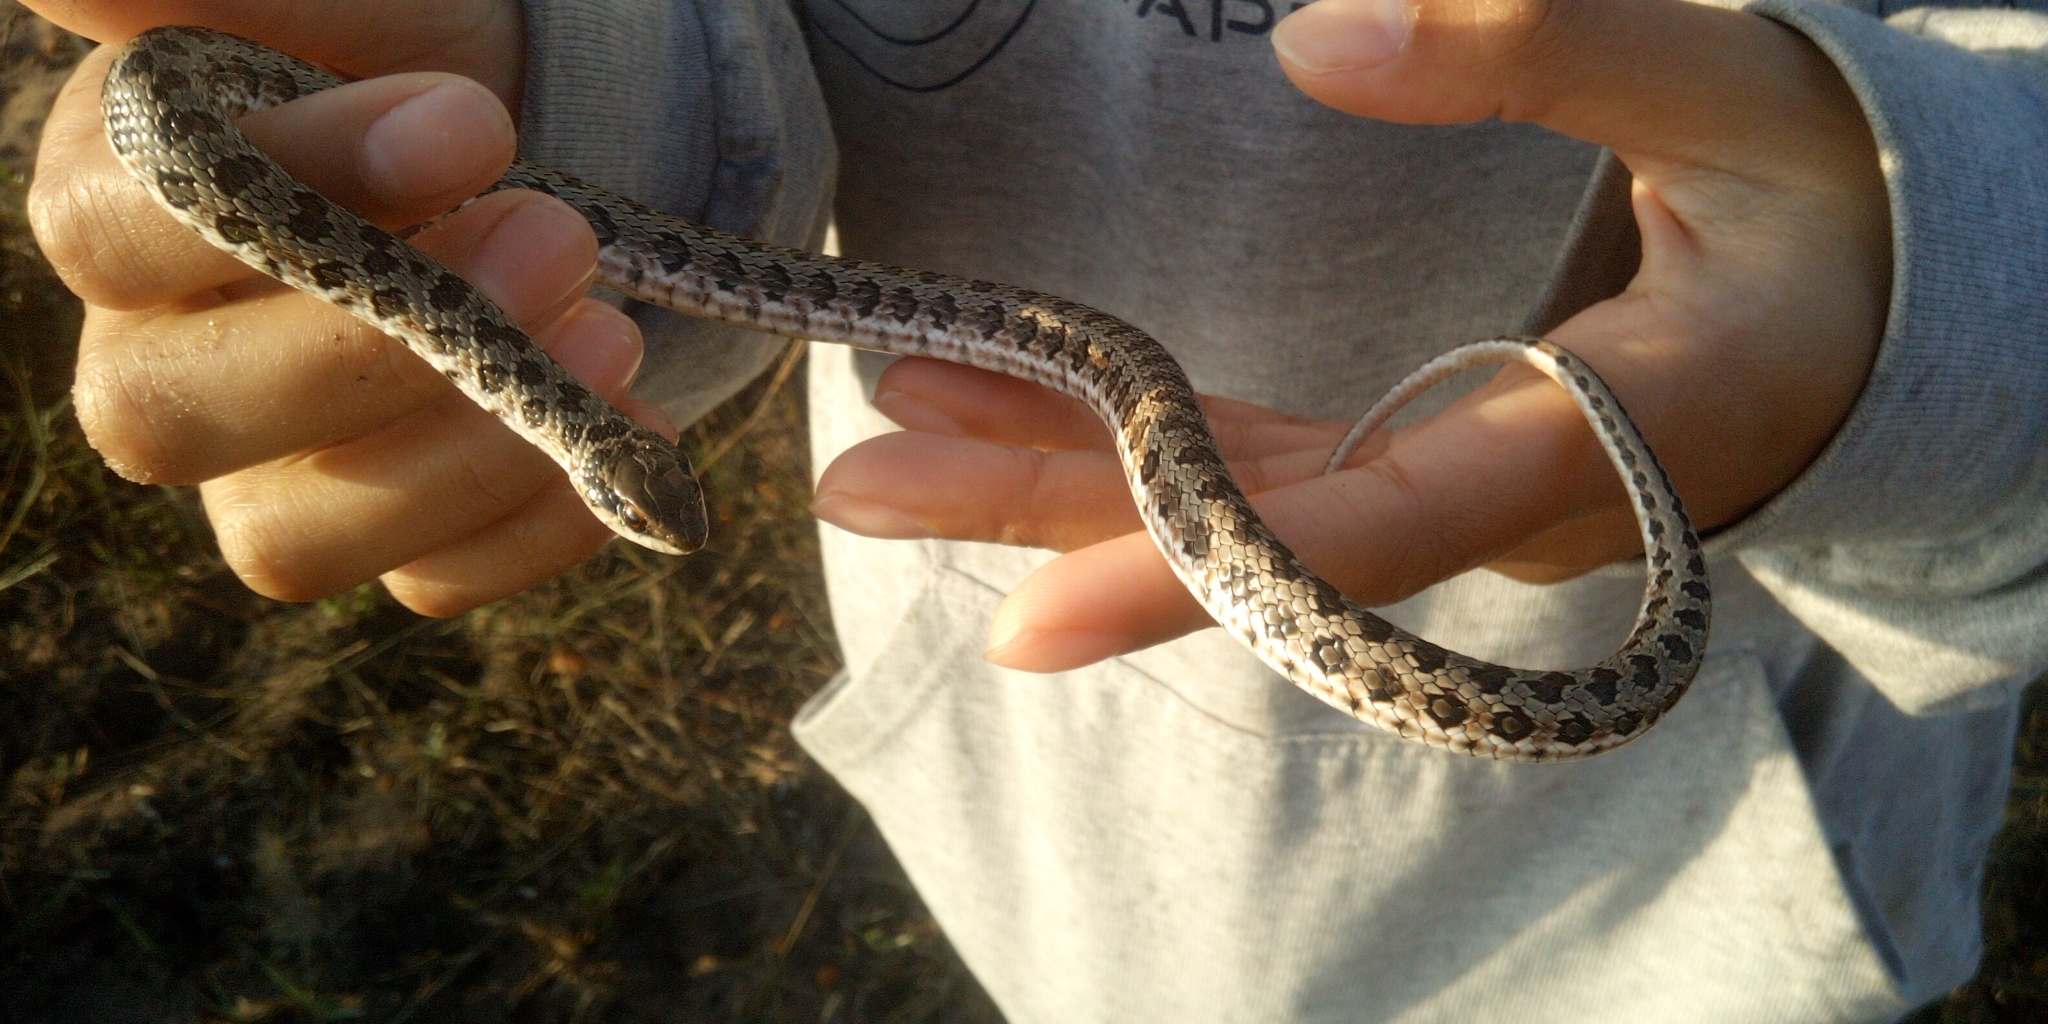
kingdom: Animalia
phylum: Chordata
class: Squamata
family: Psammophiidae
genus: Psammophylax
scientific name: Psammophylax rhombeatus
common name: Rhombic skaapsteker
